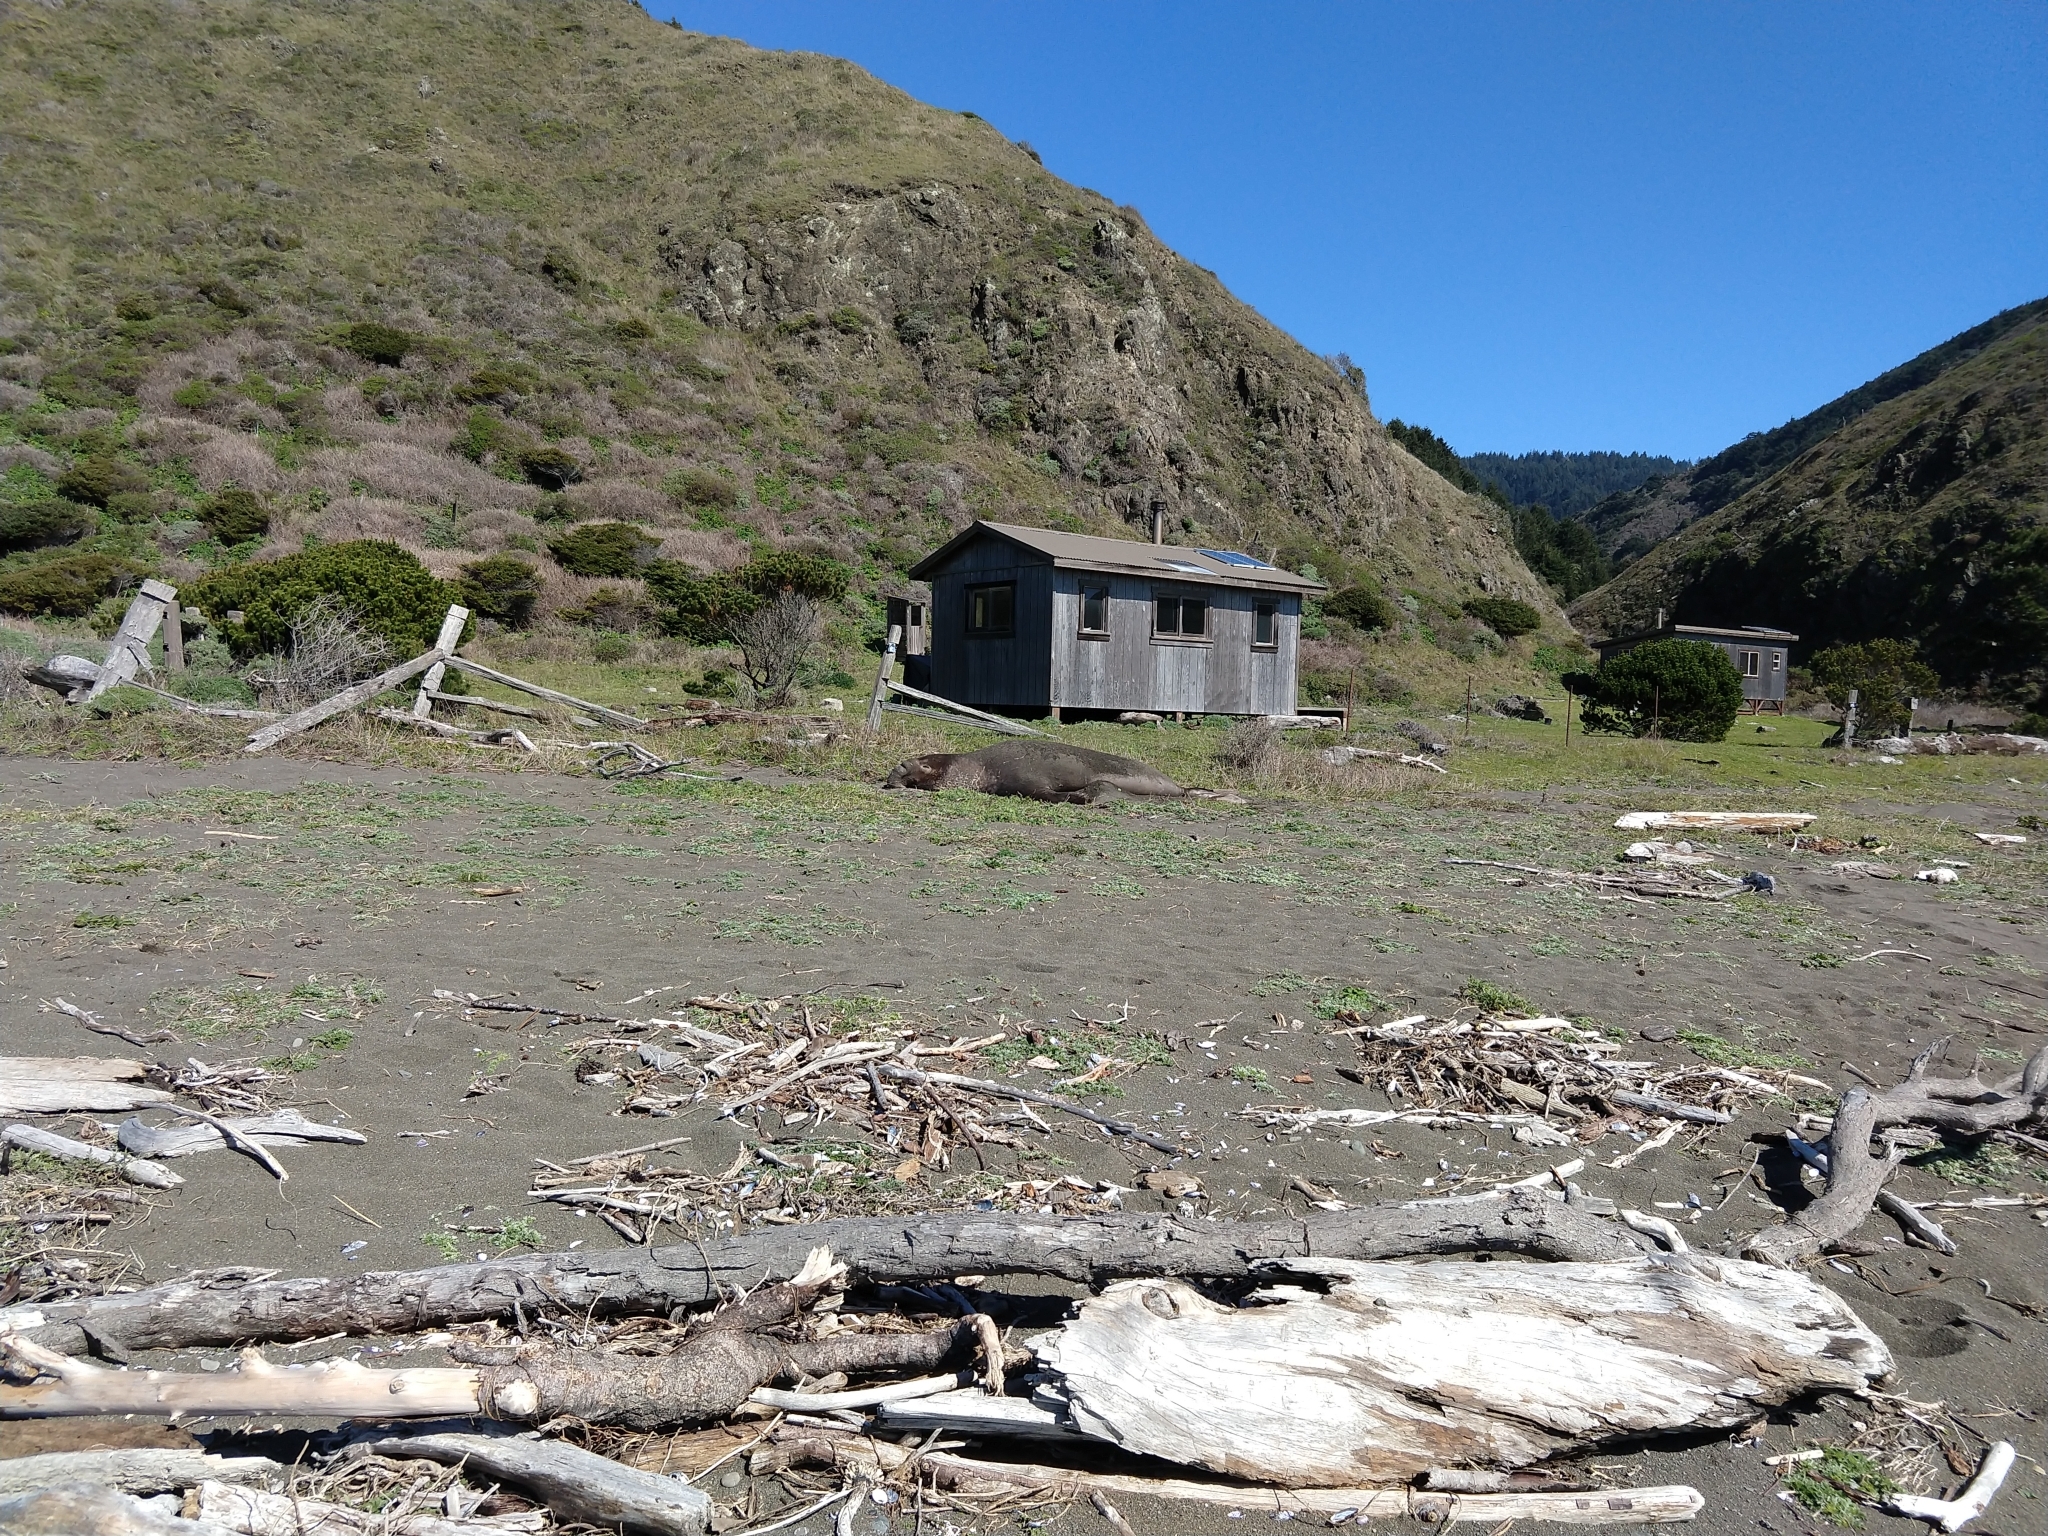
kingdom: Animalia
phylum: Chordata
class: Mammalia
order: Carnivora
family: Phocidae
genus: Mirounga
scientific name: Mirounga angustirostris
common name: Northern elephant seal
